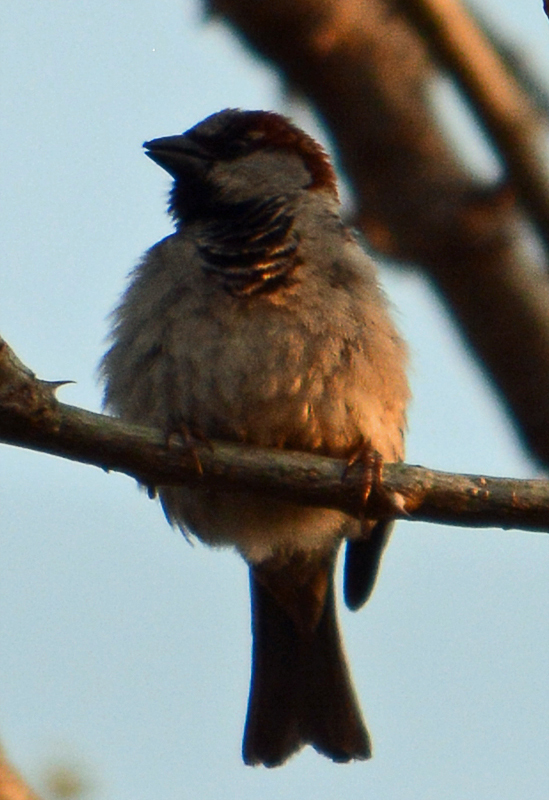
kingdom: Animalia
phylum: Chordata
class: Aves
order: Passeriformes
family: Passeridae
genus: Passer
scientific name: Passer domesticus
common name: House sparrow
